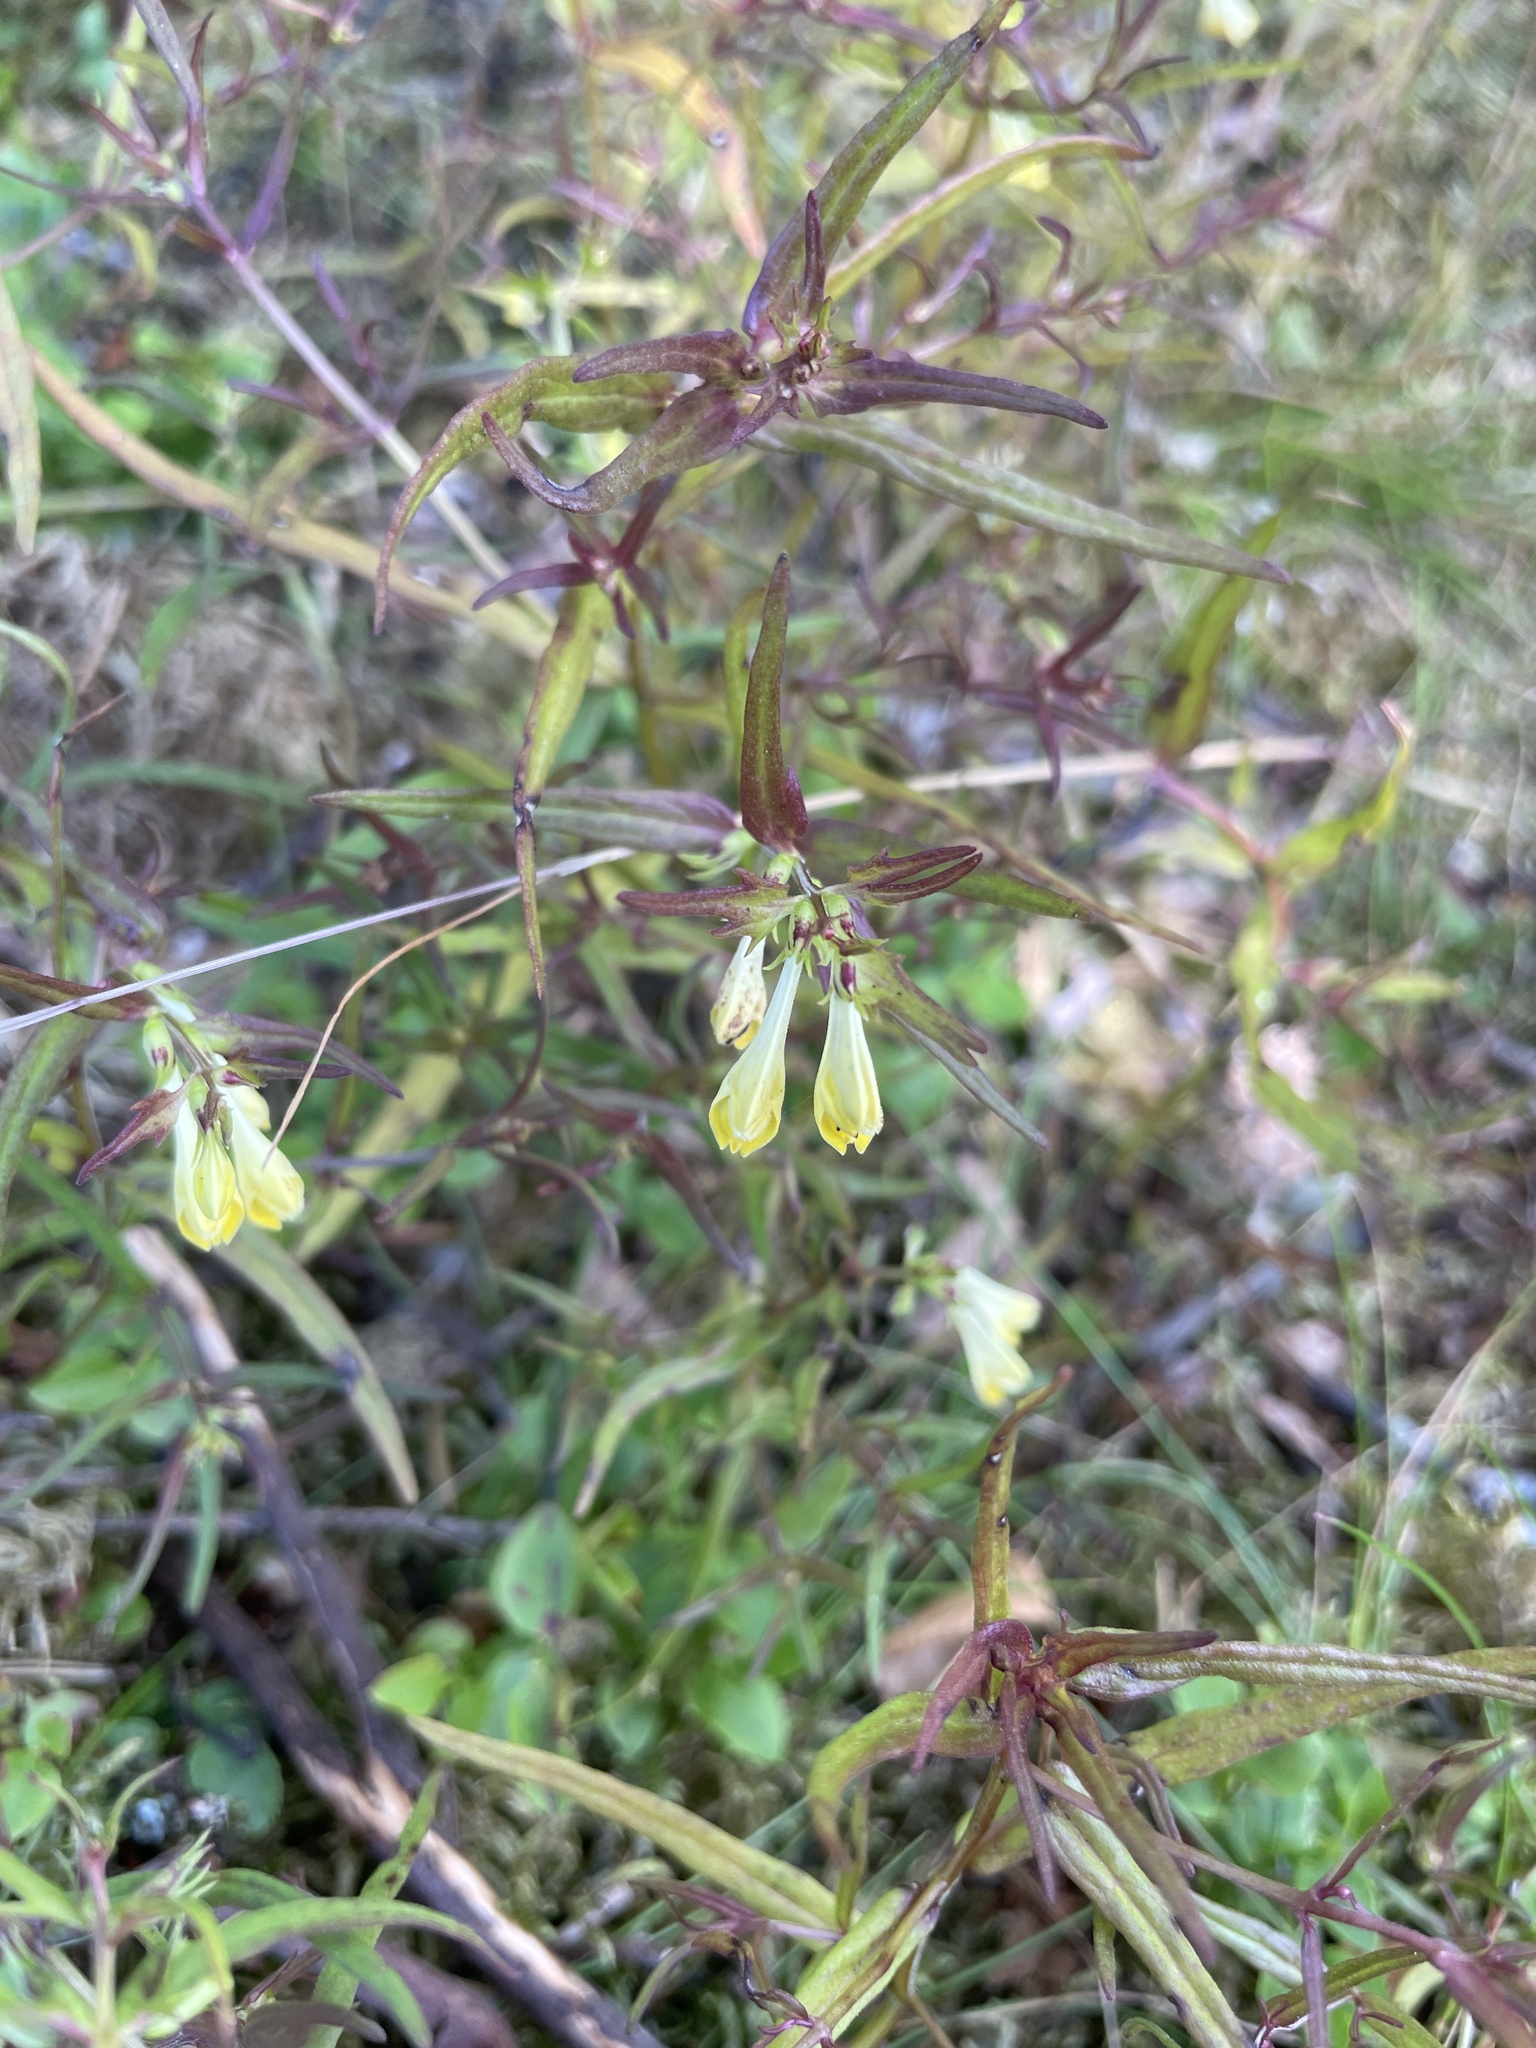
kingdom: Plantae
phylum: Tracheophyta
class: Magnoliopsida
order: Lamiales
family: Orobanchaceae
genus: Melampyrum
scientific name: Melampyrum pratense
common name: Common cow-wheat
